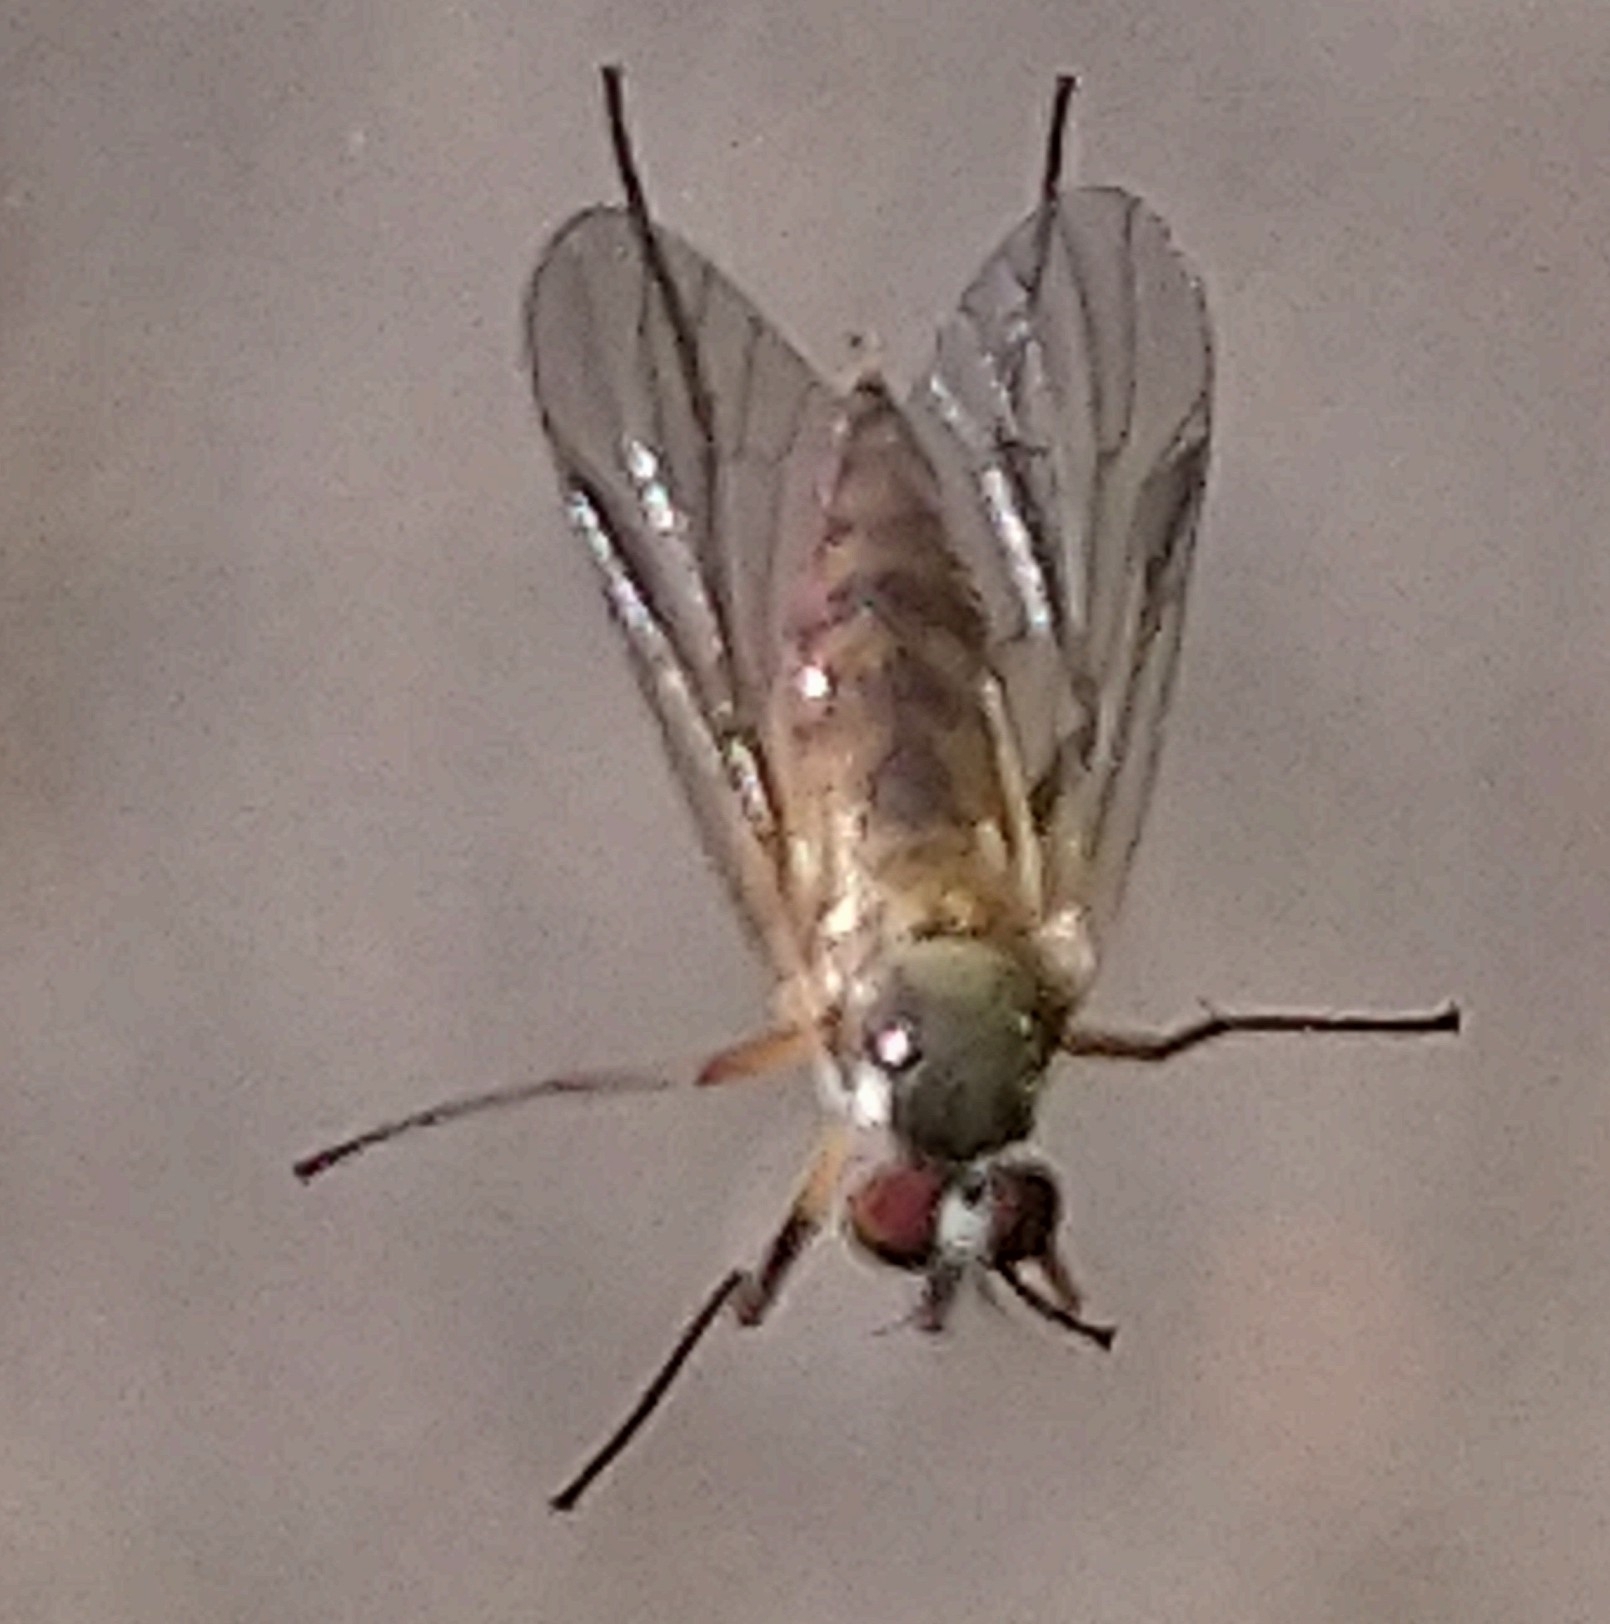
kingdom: Animalia
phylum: Arthropoda
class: Insecta
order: Diptera
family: Rhagionidae
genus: Rhagio
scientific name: Rhagio lineola
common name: Small fleck-winged snipefly
